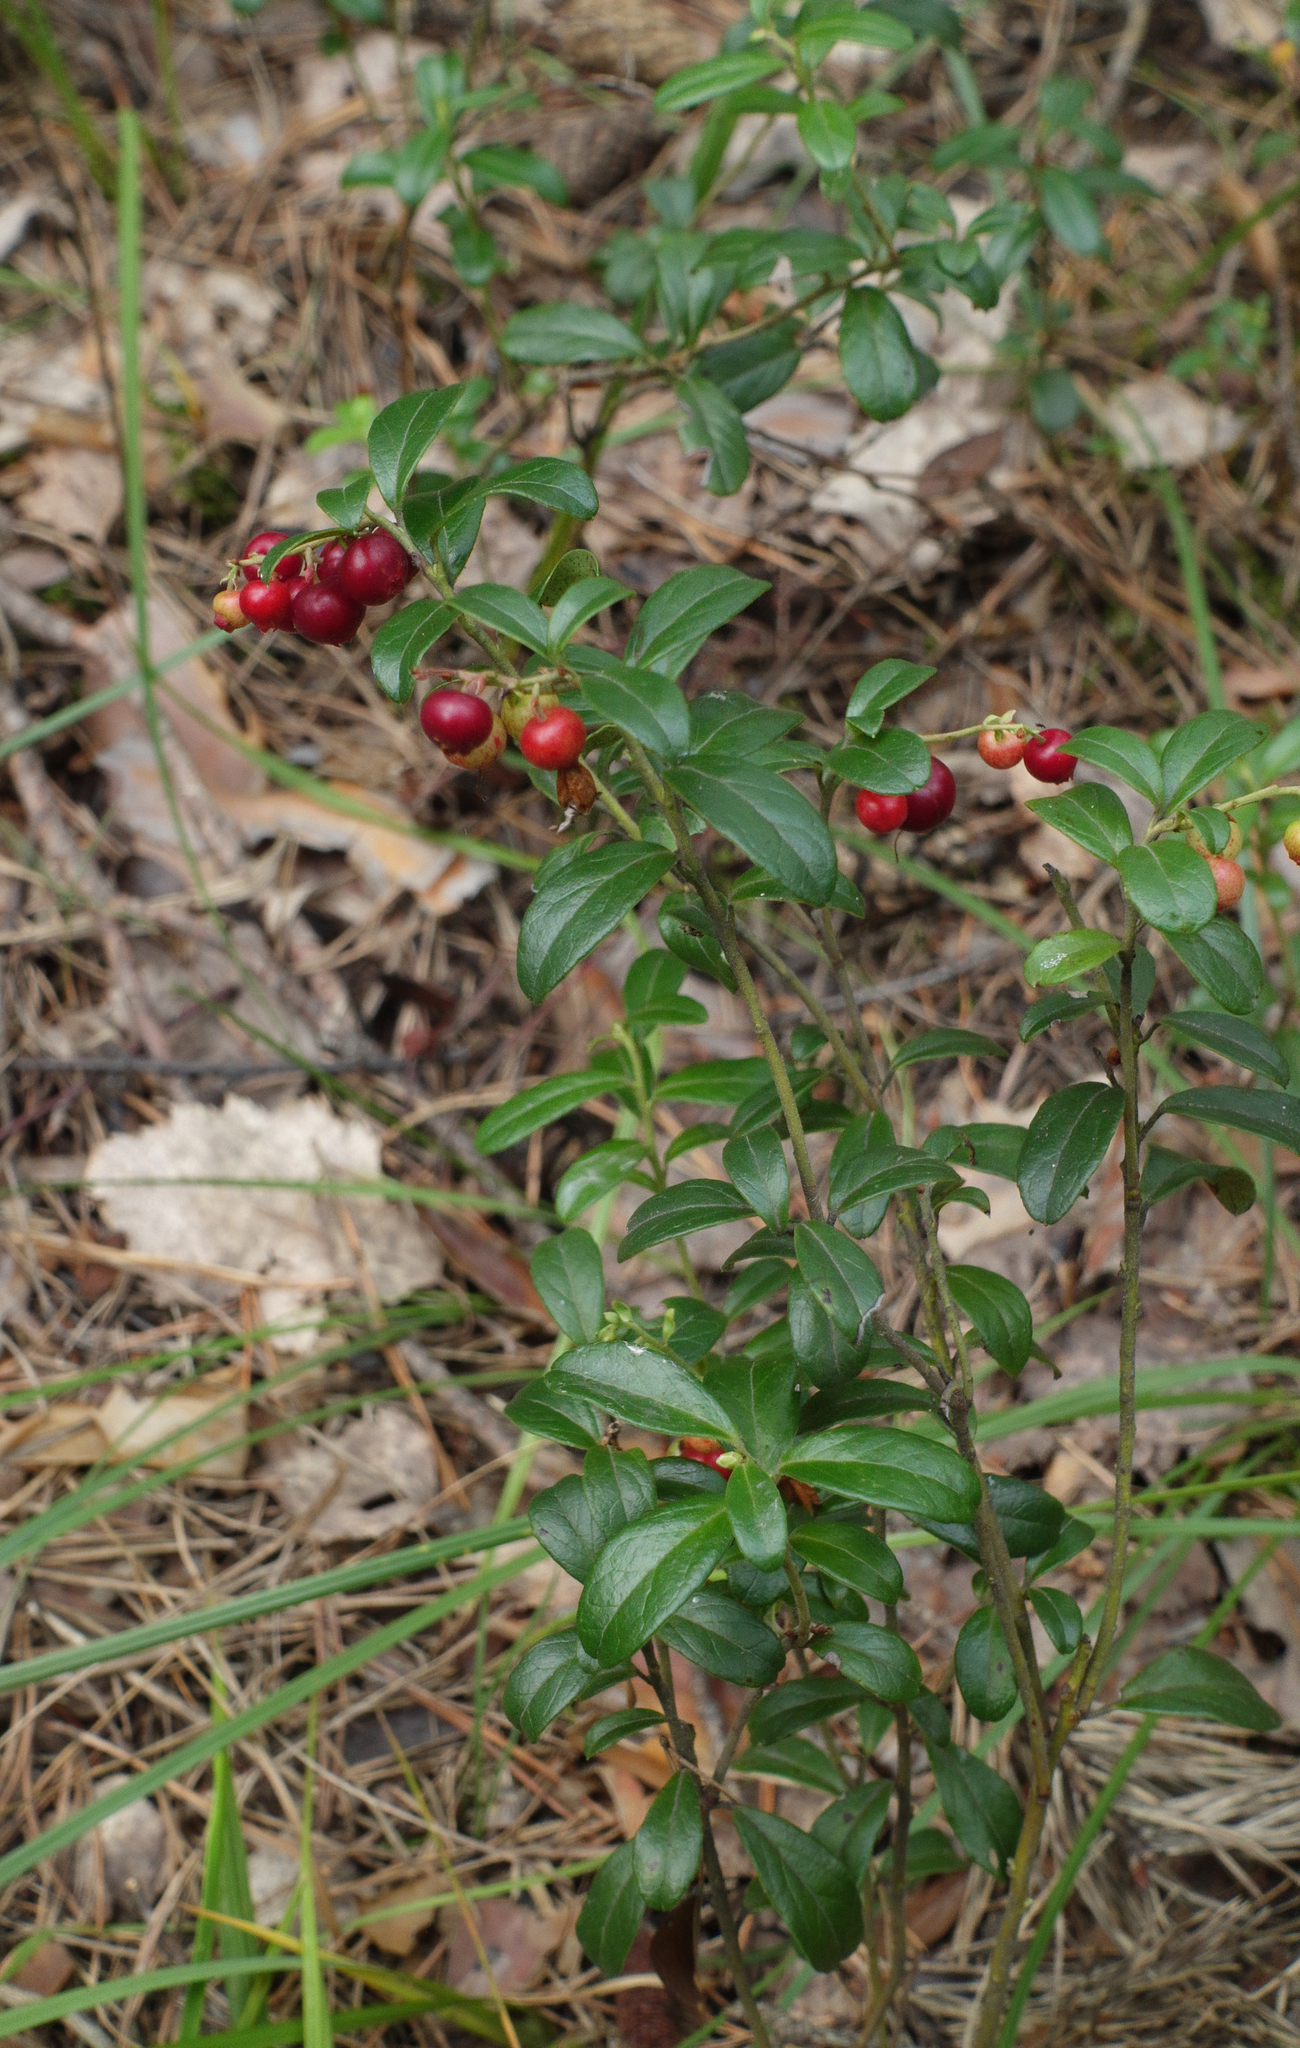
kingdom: Plantae
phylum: Tracheophyta
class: Magnoliopsida
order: Ericales
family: Ericaceae
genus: Vaccinium
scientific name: Vaccinium vitis-idaea
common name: Cowberry
